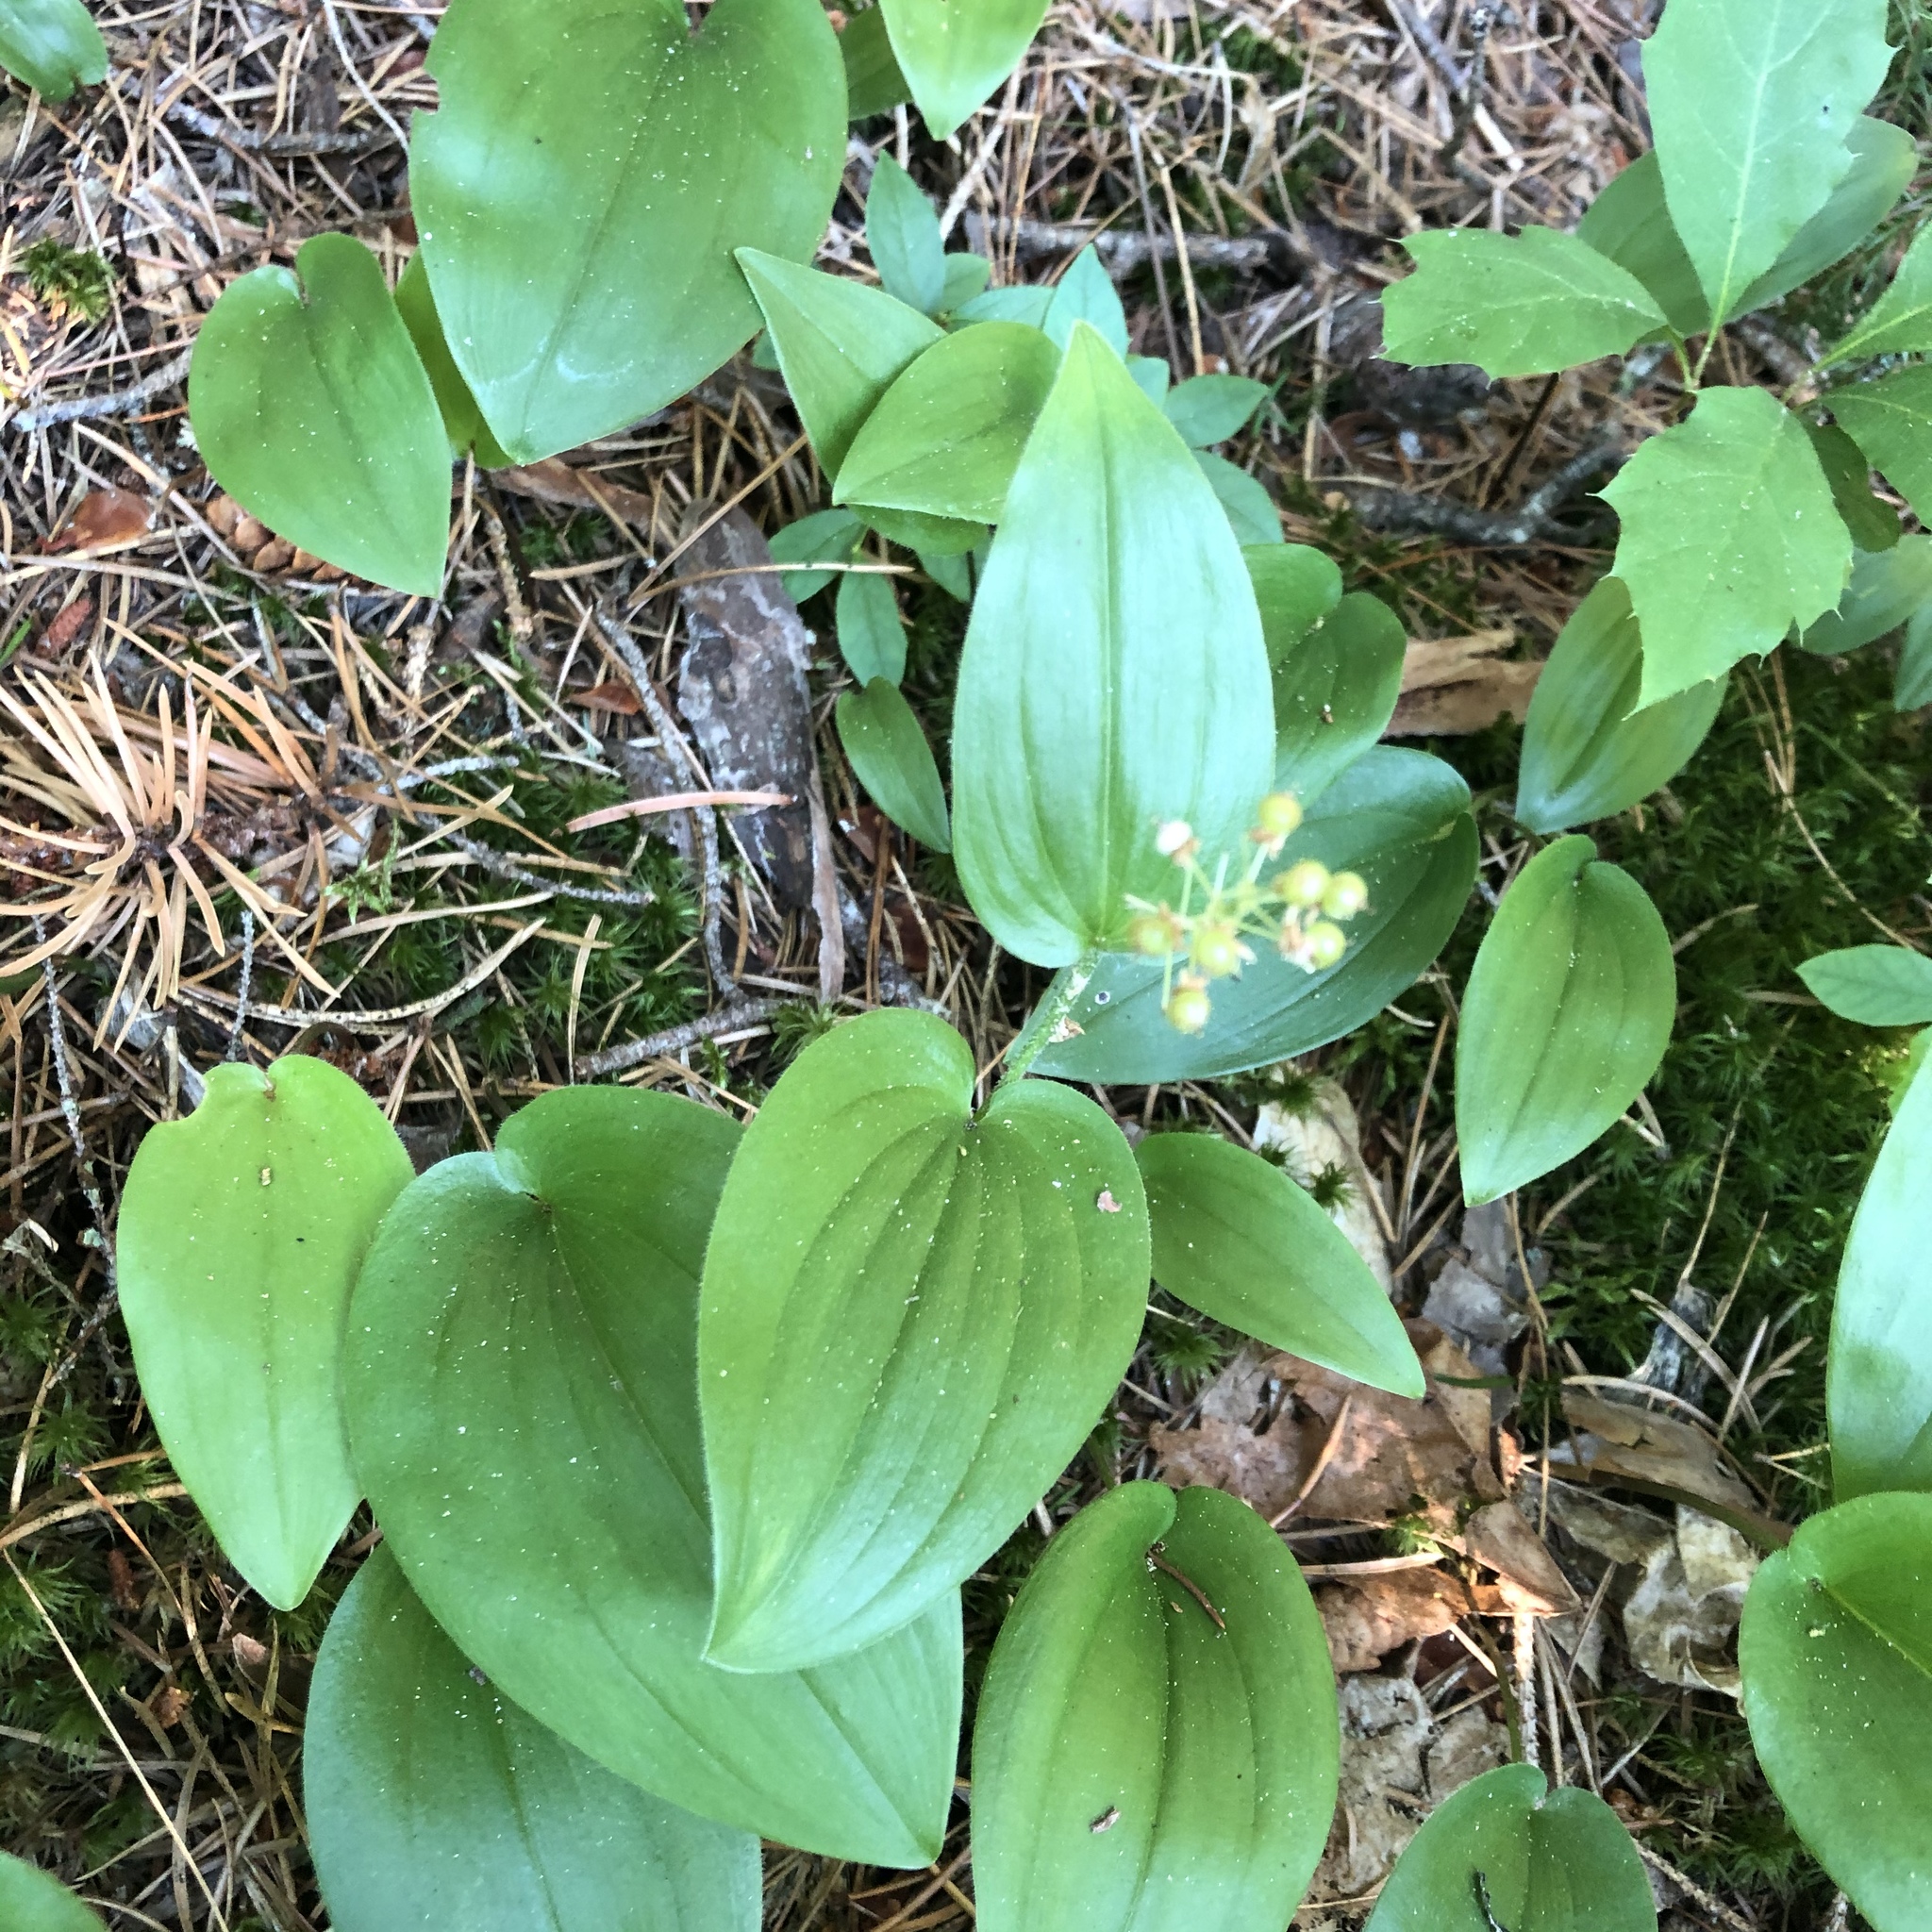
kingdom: Plantae
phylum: Tracheophyta
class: Liliopsida
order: Asparagales
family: Asparagaceae
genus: Maianthemum
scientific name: Maianthemum canadense
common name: False lily-of-the-valley
